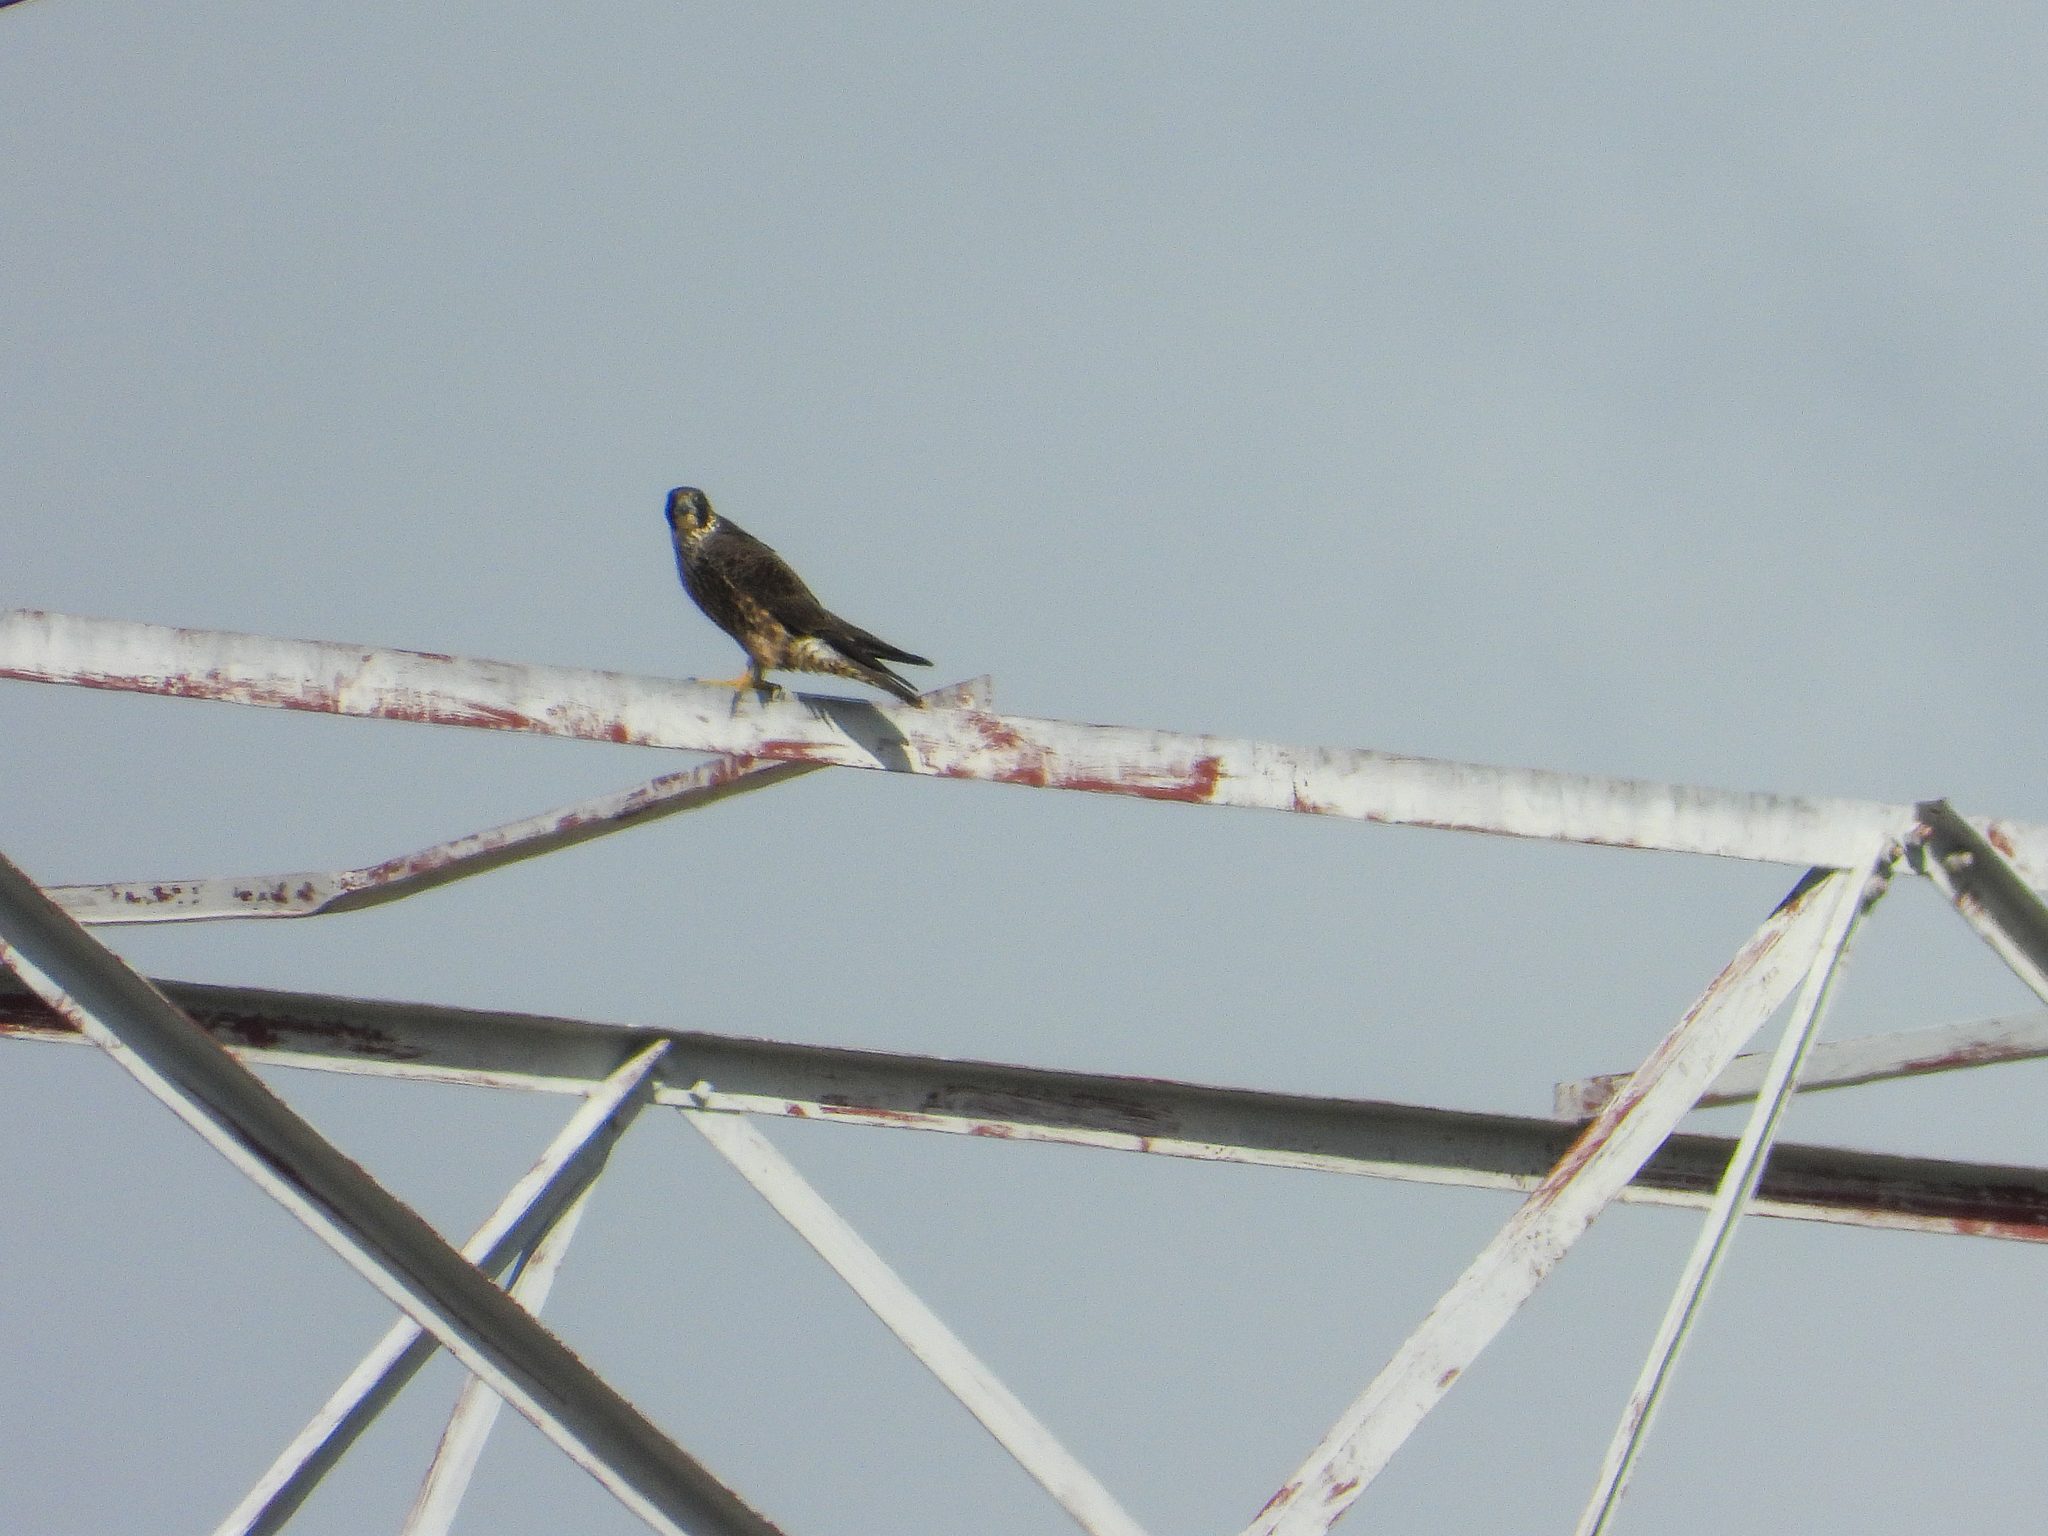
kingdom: Animalia
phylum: Chordata
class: Aves
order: Falconiformes
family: Falconidae
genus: Falco
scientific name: Falco peregrinus
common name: Peregrine falcon
